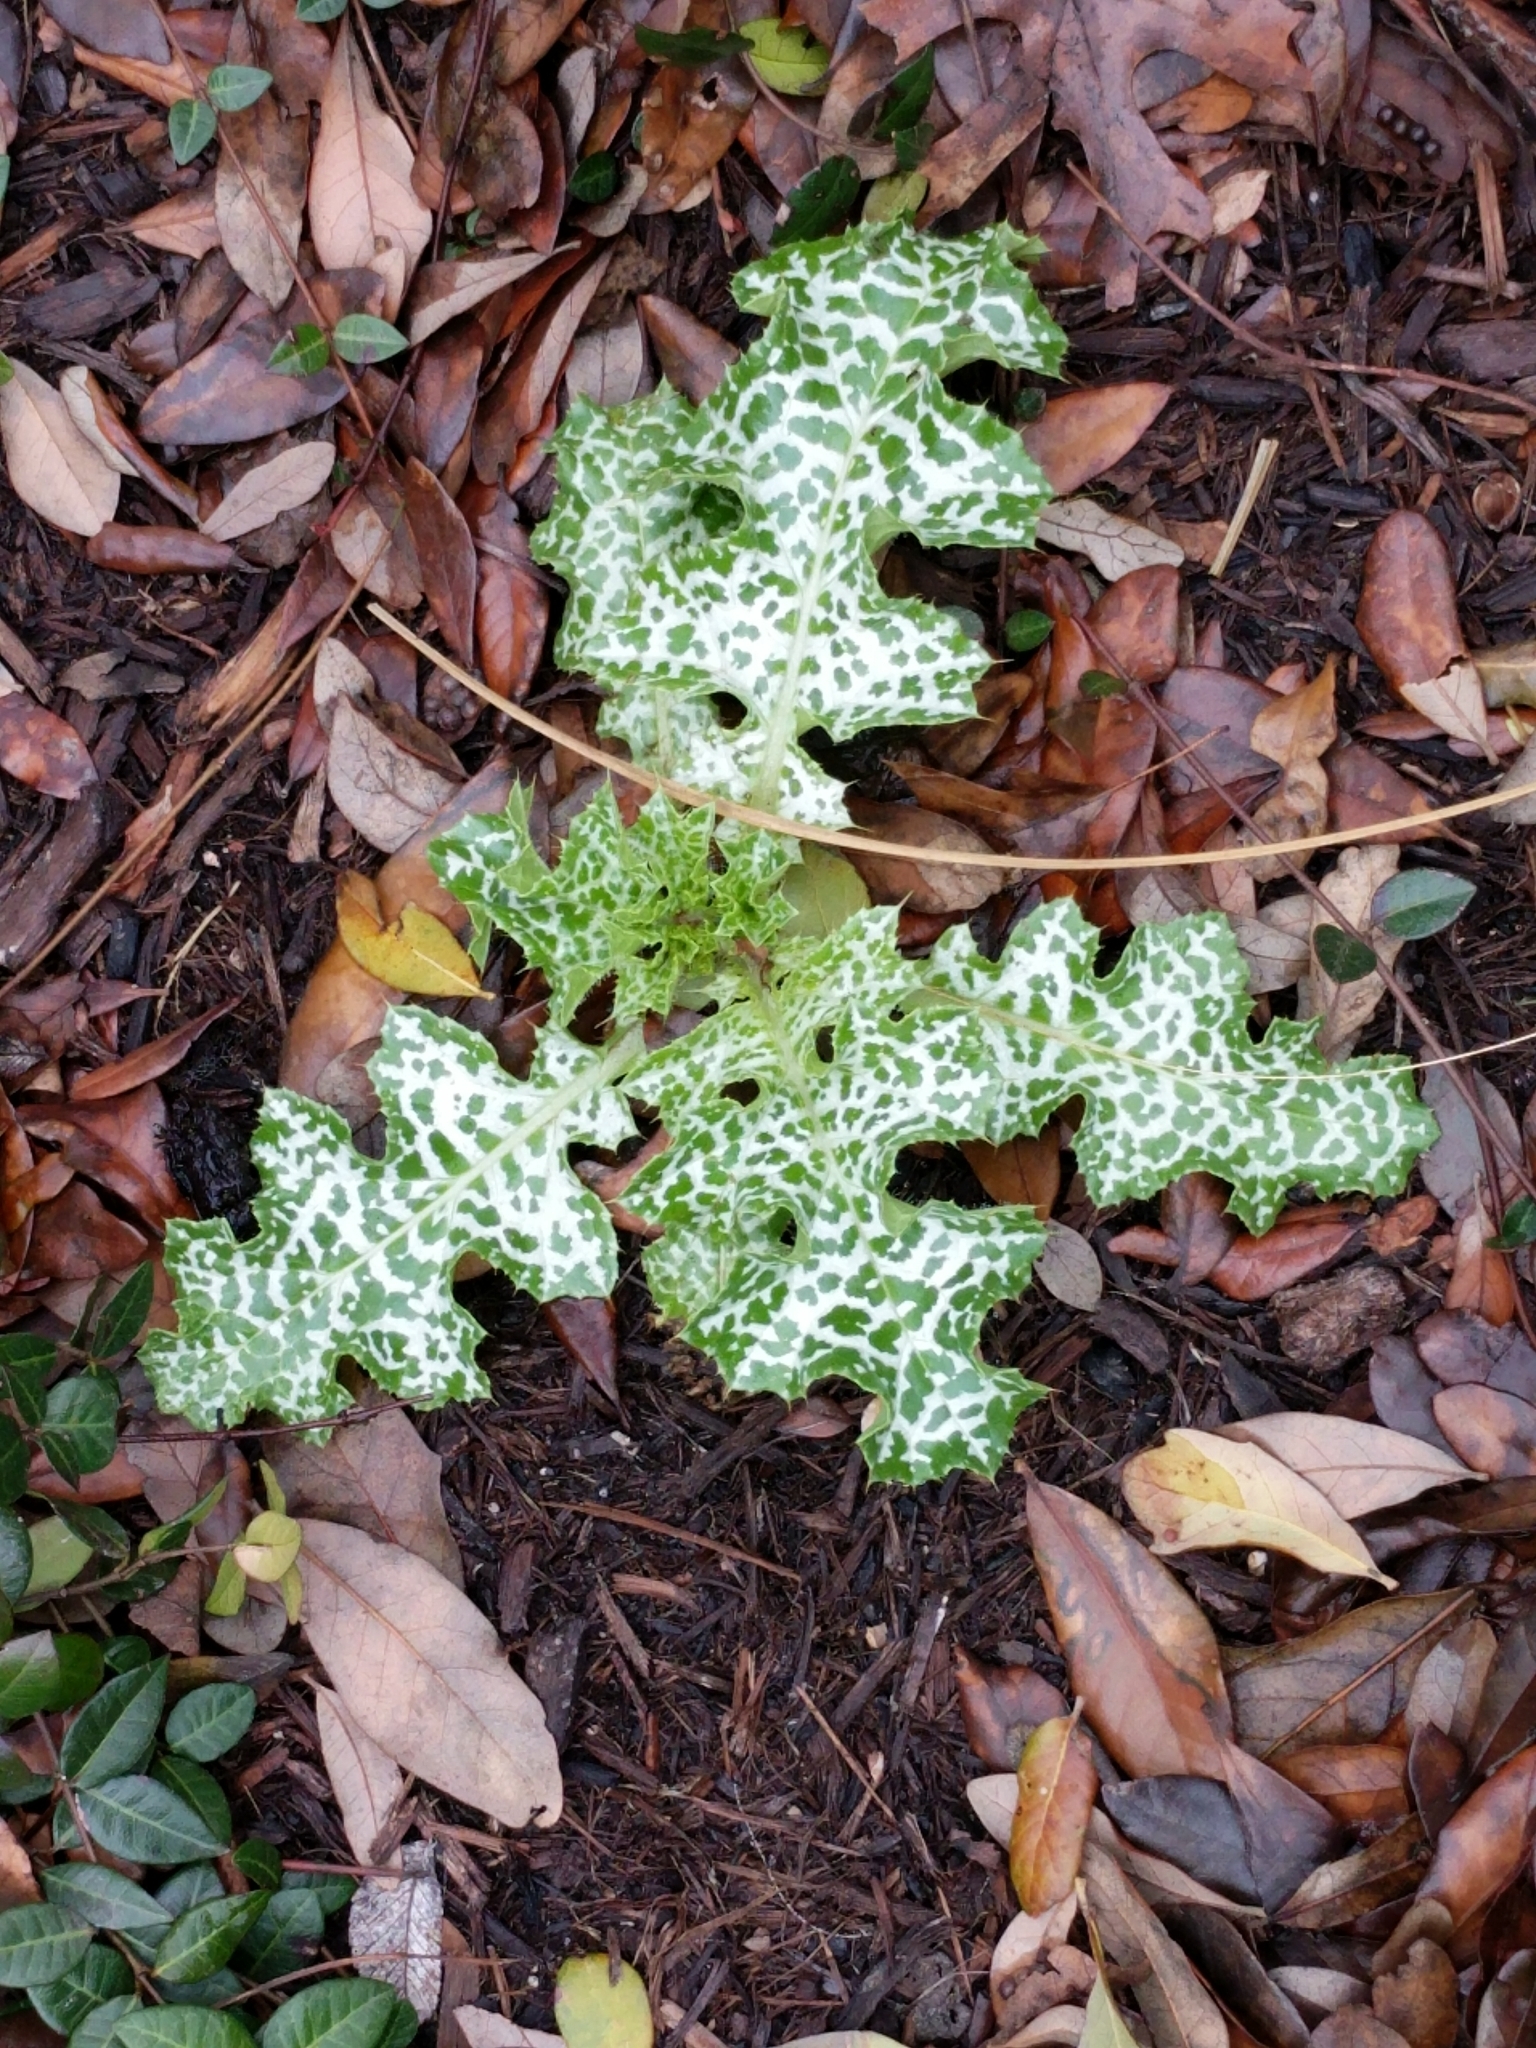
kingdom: Plantae
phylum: Tracheophyta
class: Magnoliopsida
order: Asterales
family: Asteraceae
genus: Silybum
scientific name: Silybum marianum
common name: Milk thistle
